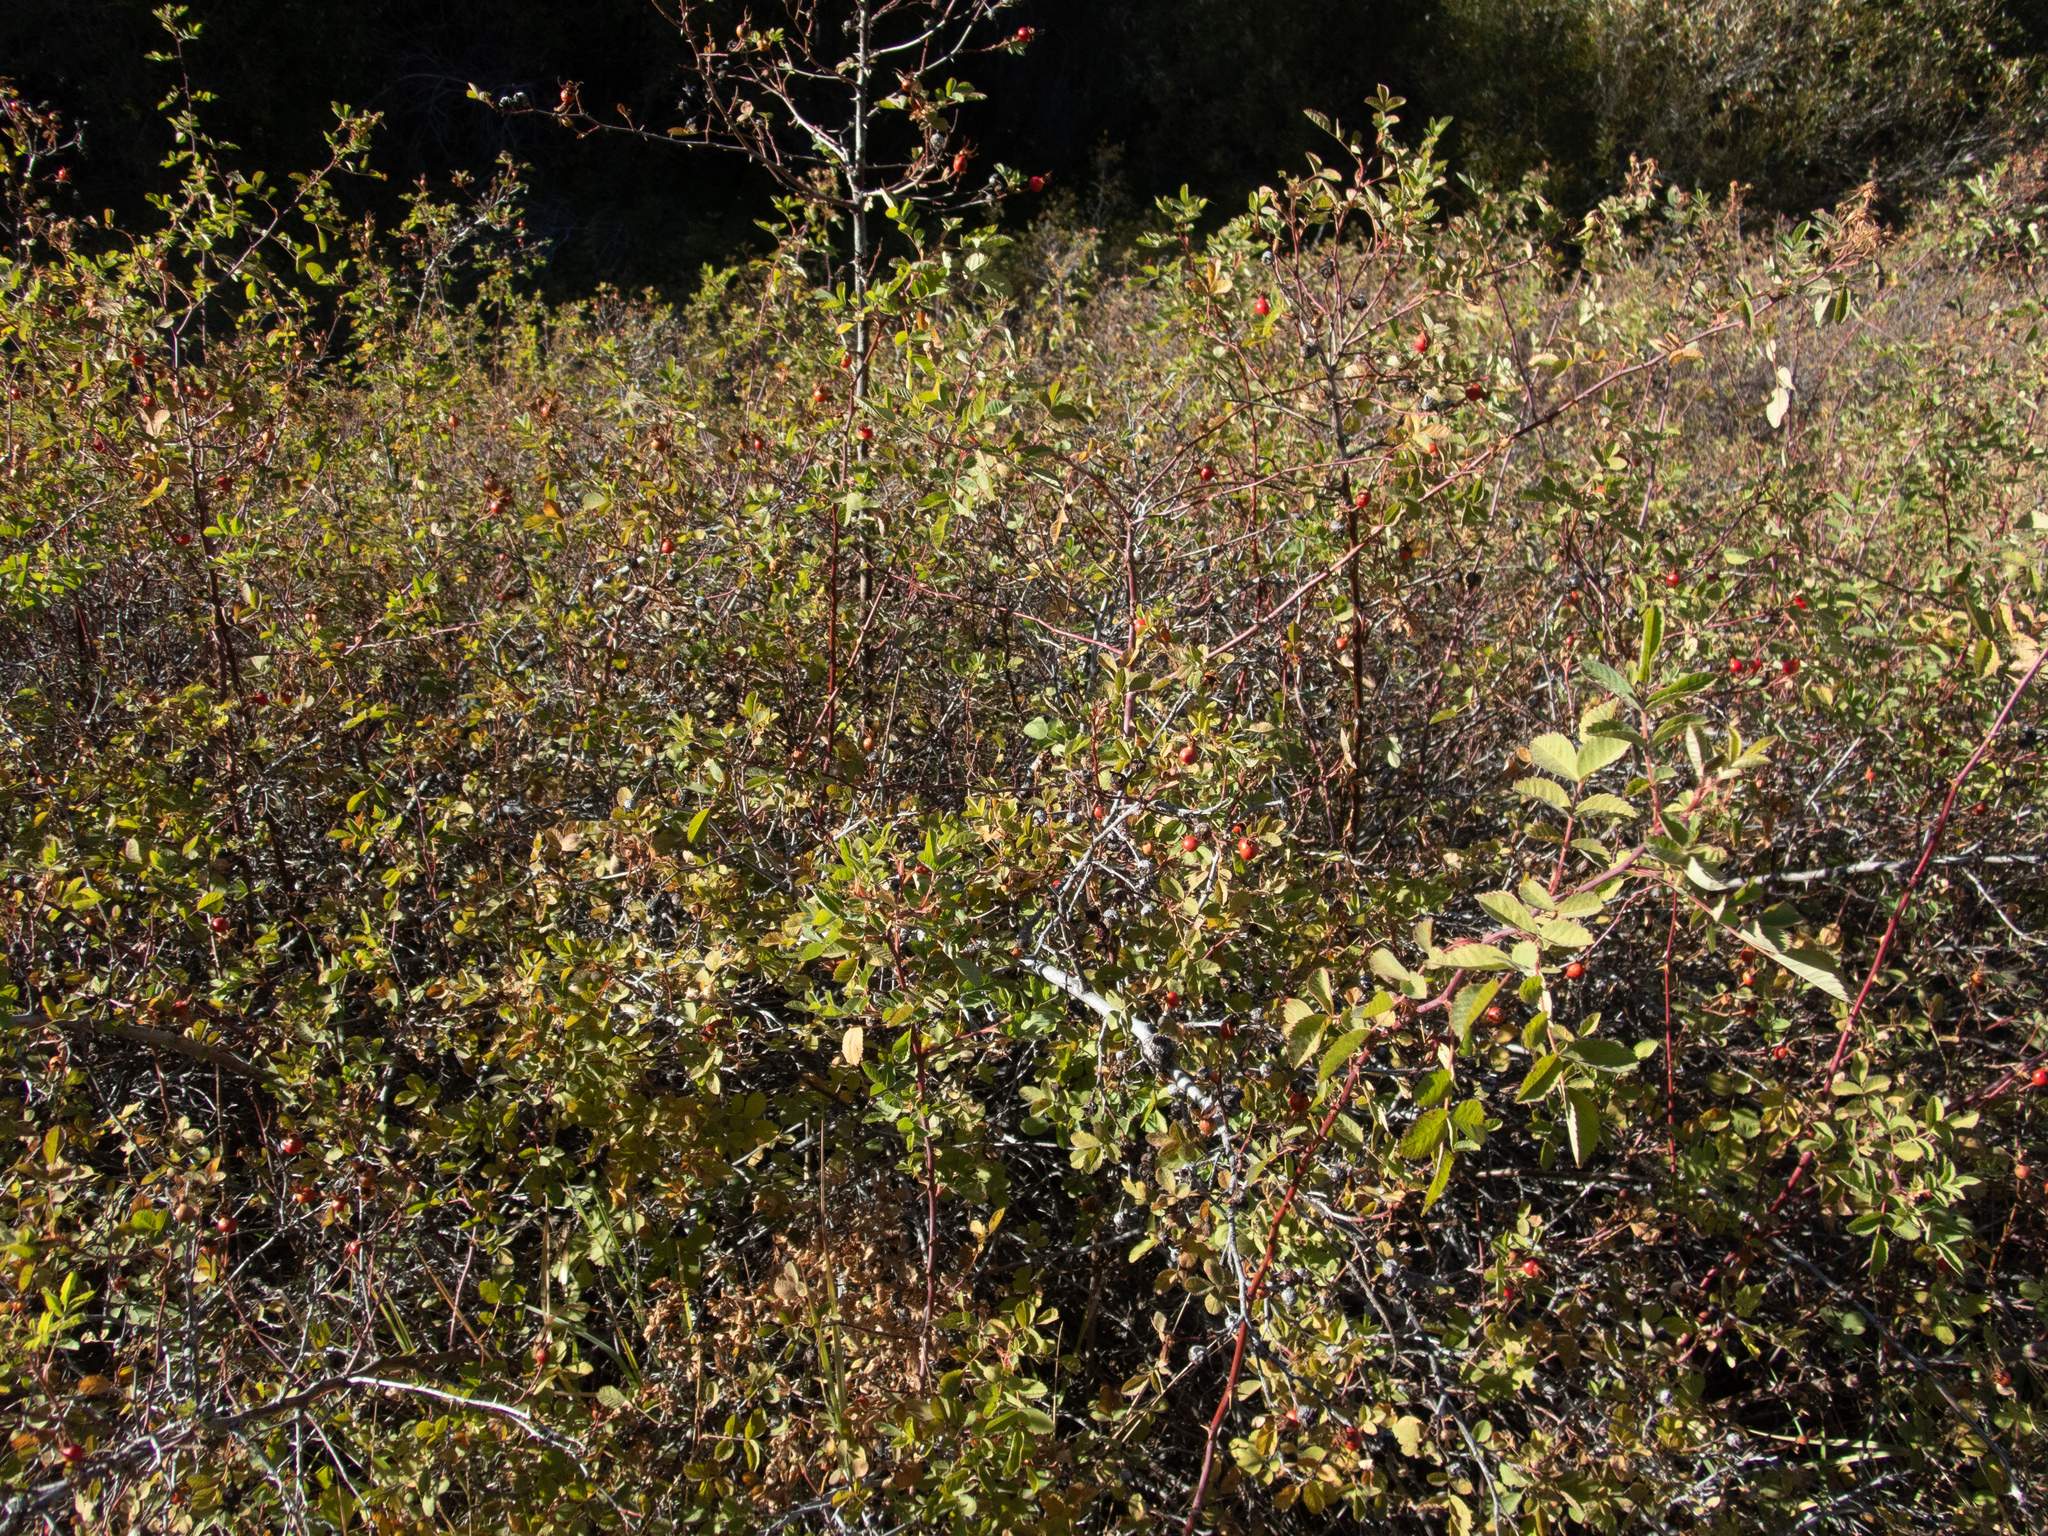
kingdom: Plantae
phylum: Tracheophyta
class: Magnoliopsida
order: Rosales
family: Rosaceae
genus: Rosa
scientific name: Rosa californica
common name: California rose
